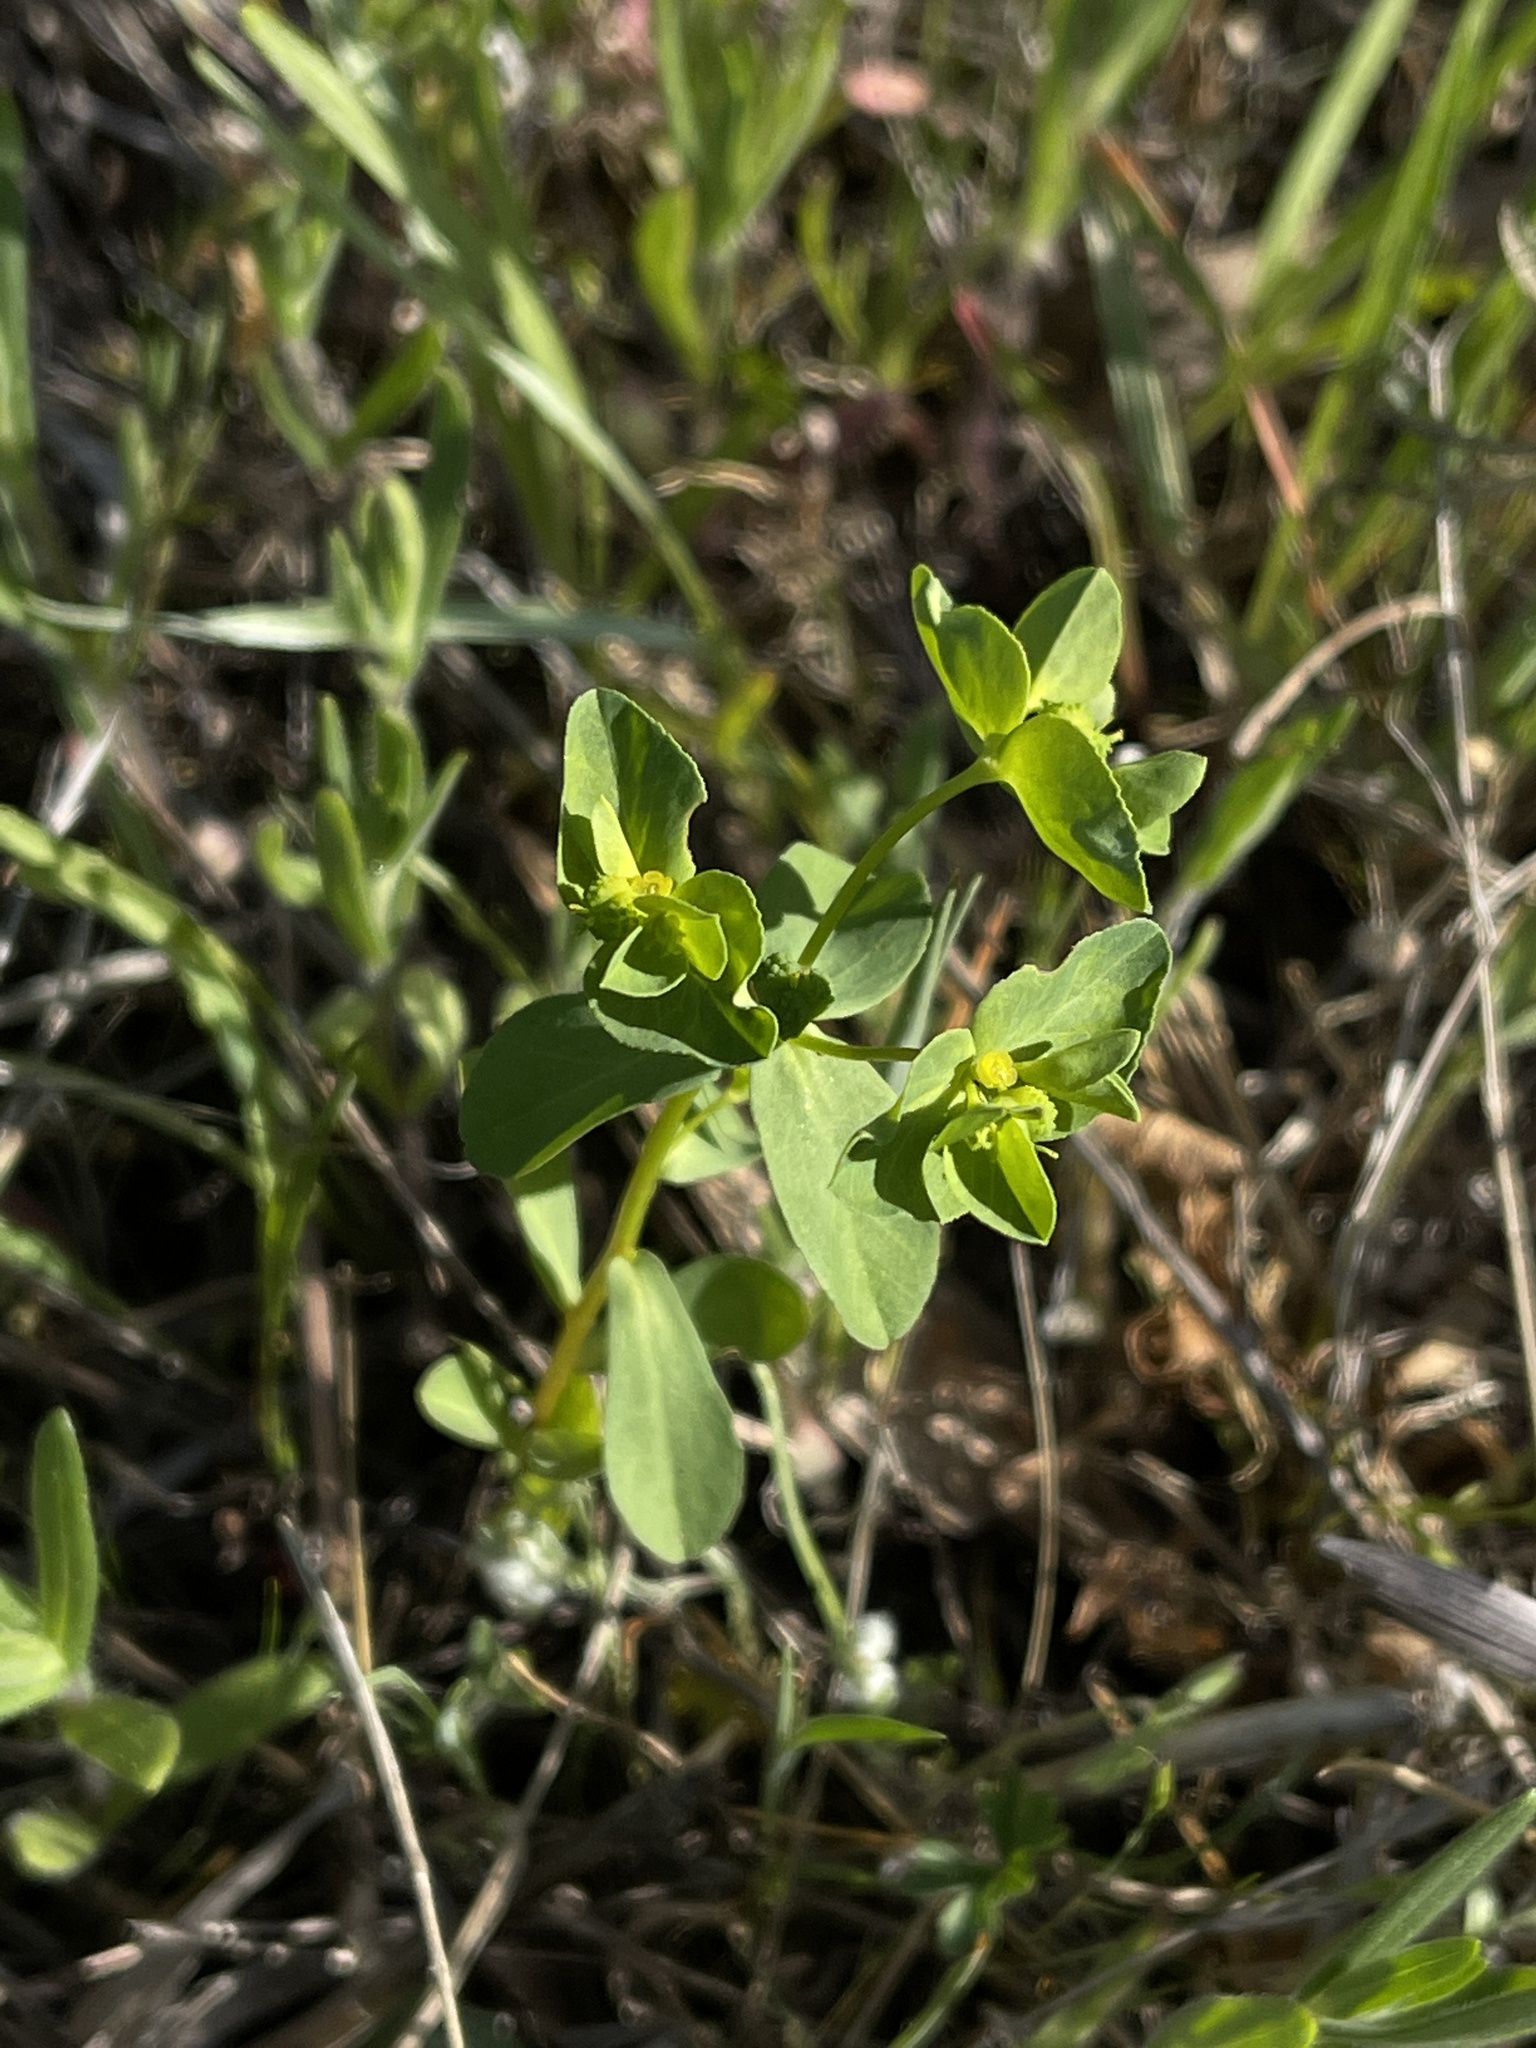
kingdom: Plantae
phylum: Tracheophyta
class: Magnoliopsida
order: Malpighiales
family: Euphorbiaceae
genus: Euphorbia
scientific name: Euphorbia spathulata
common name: Blunt spurge
